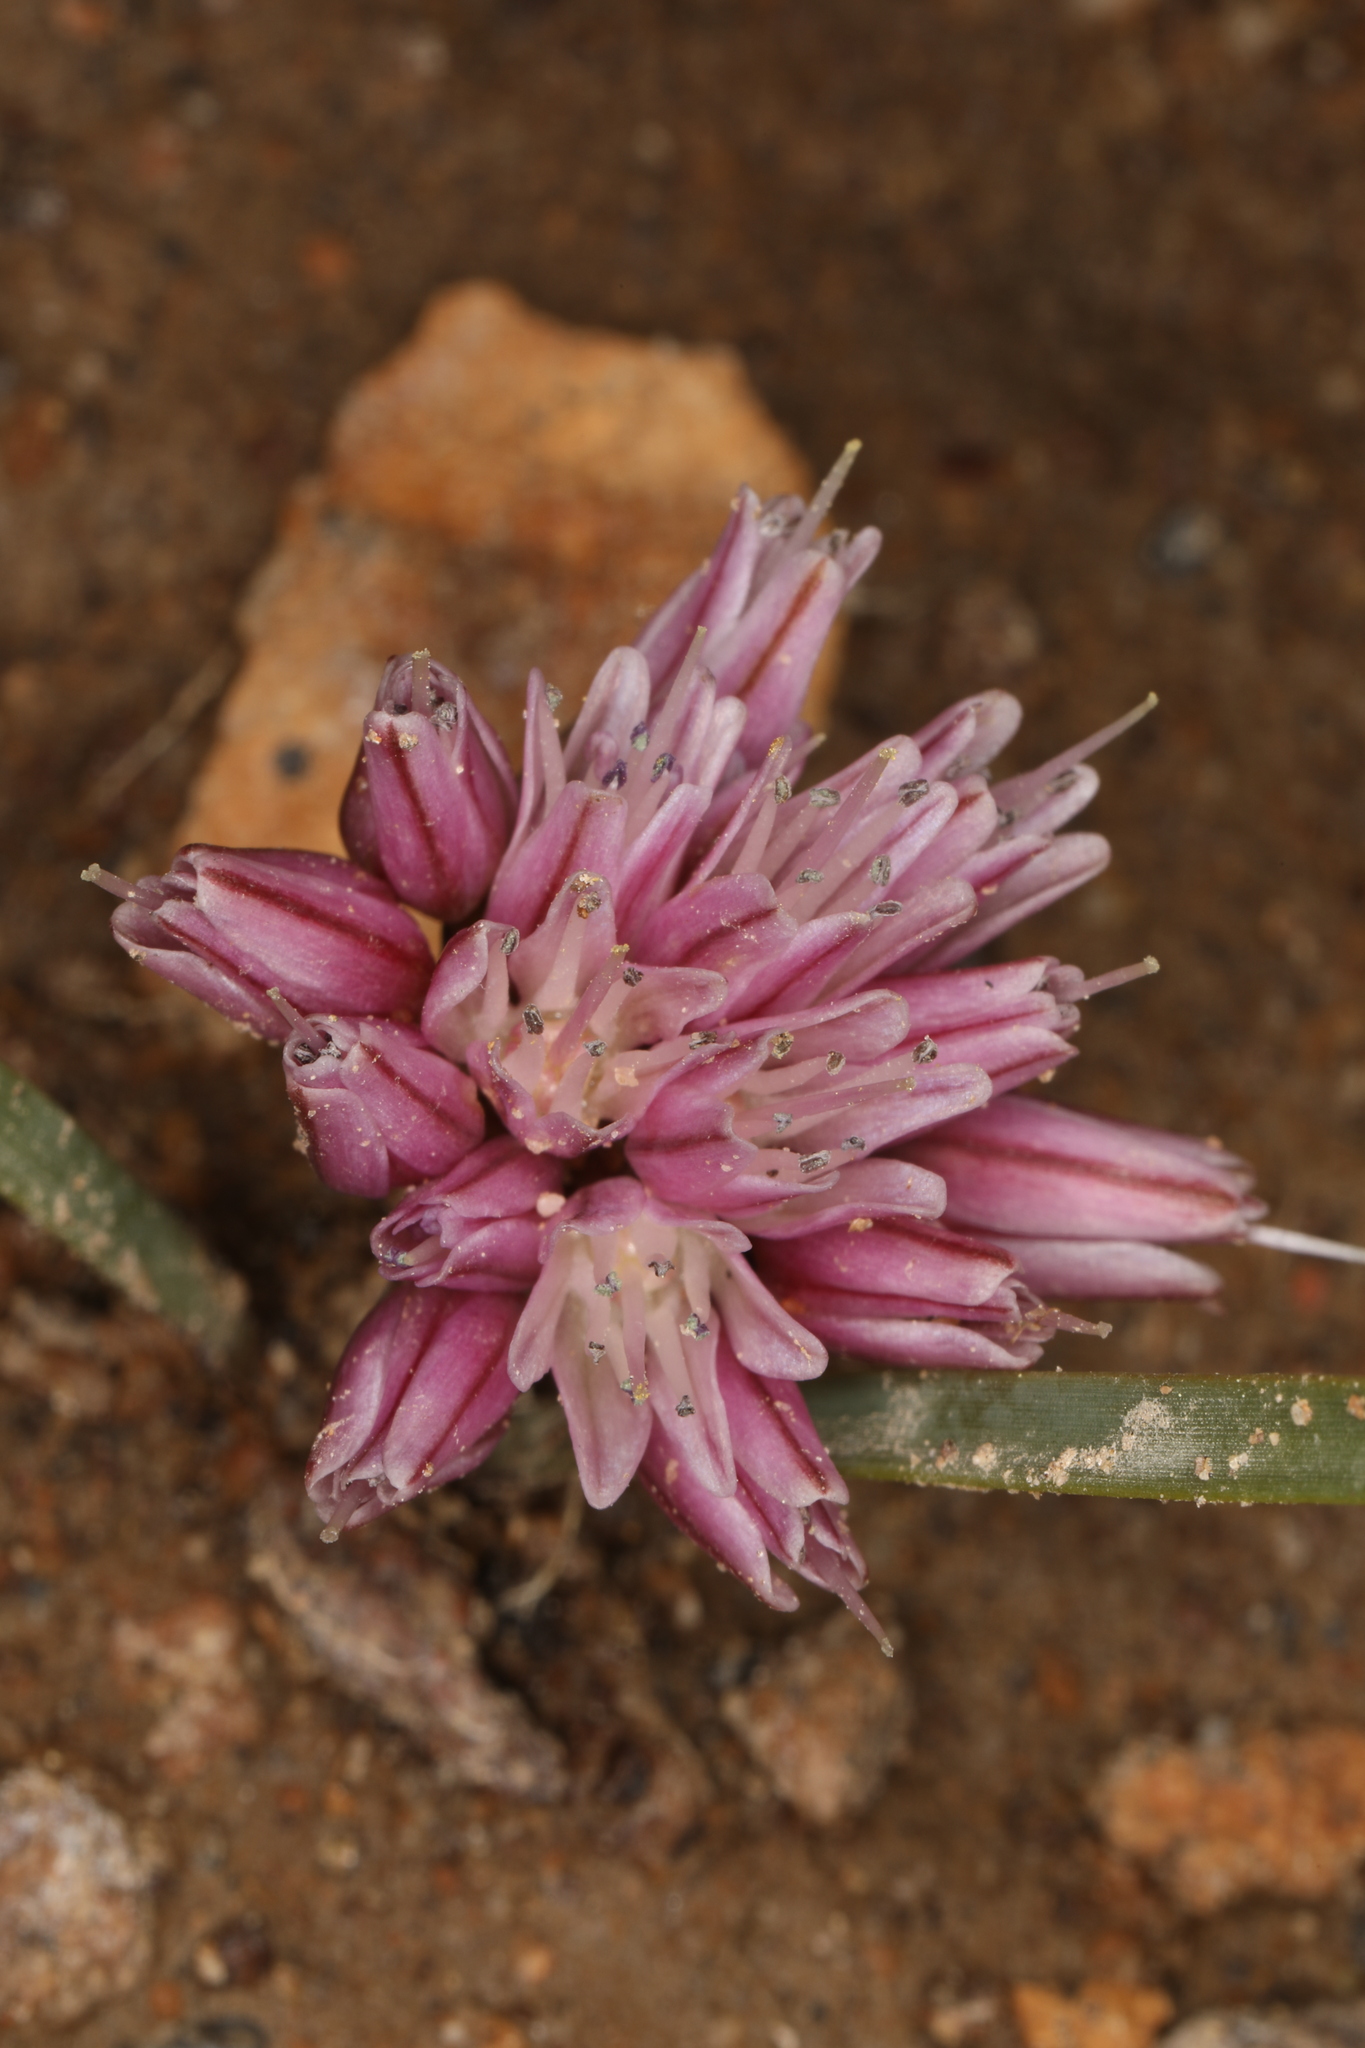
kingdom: Plantae
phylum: Tracheophyta
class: Liliopsida
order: Asparagales
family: Amaryllidaceae
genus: Allium
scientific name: Allium parvum
